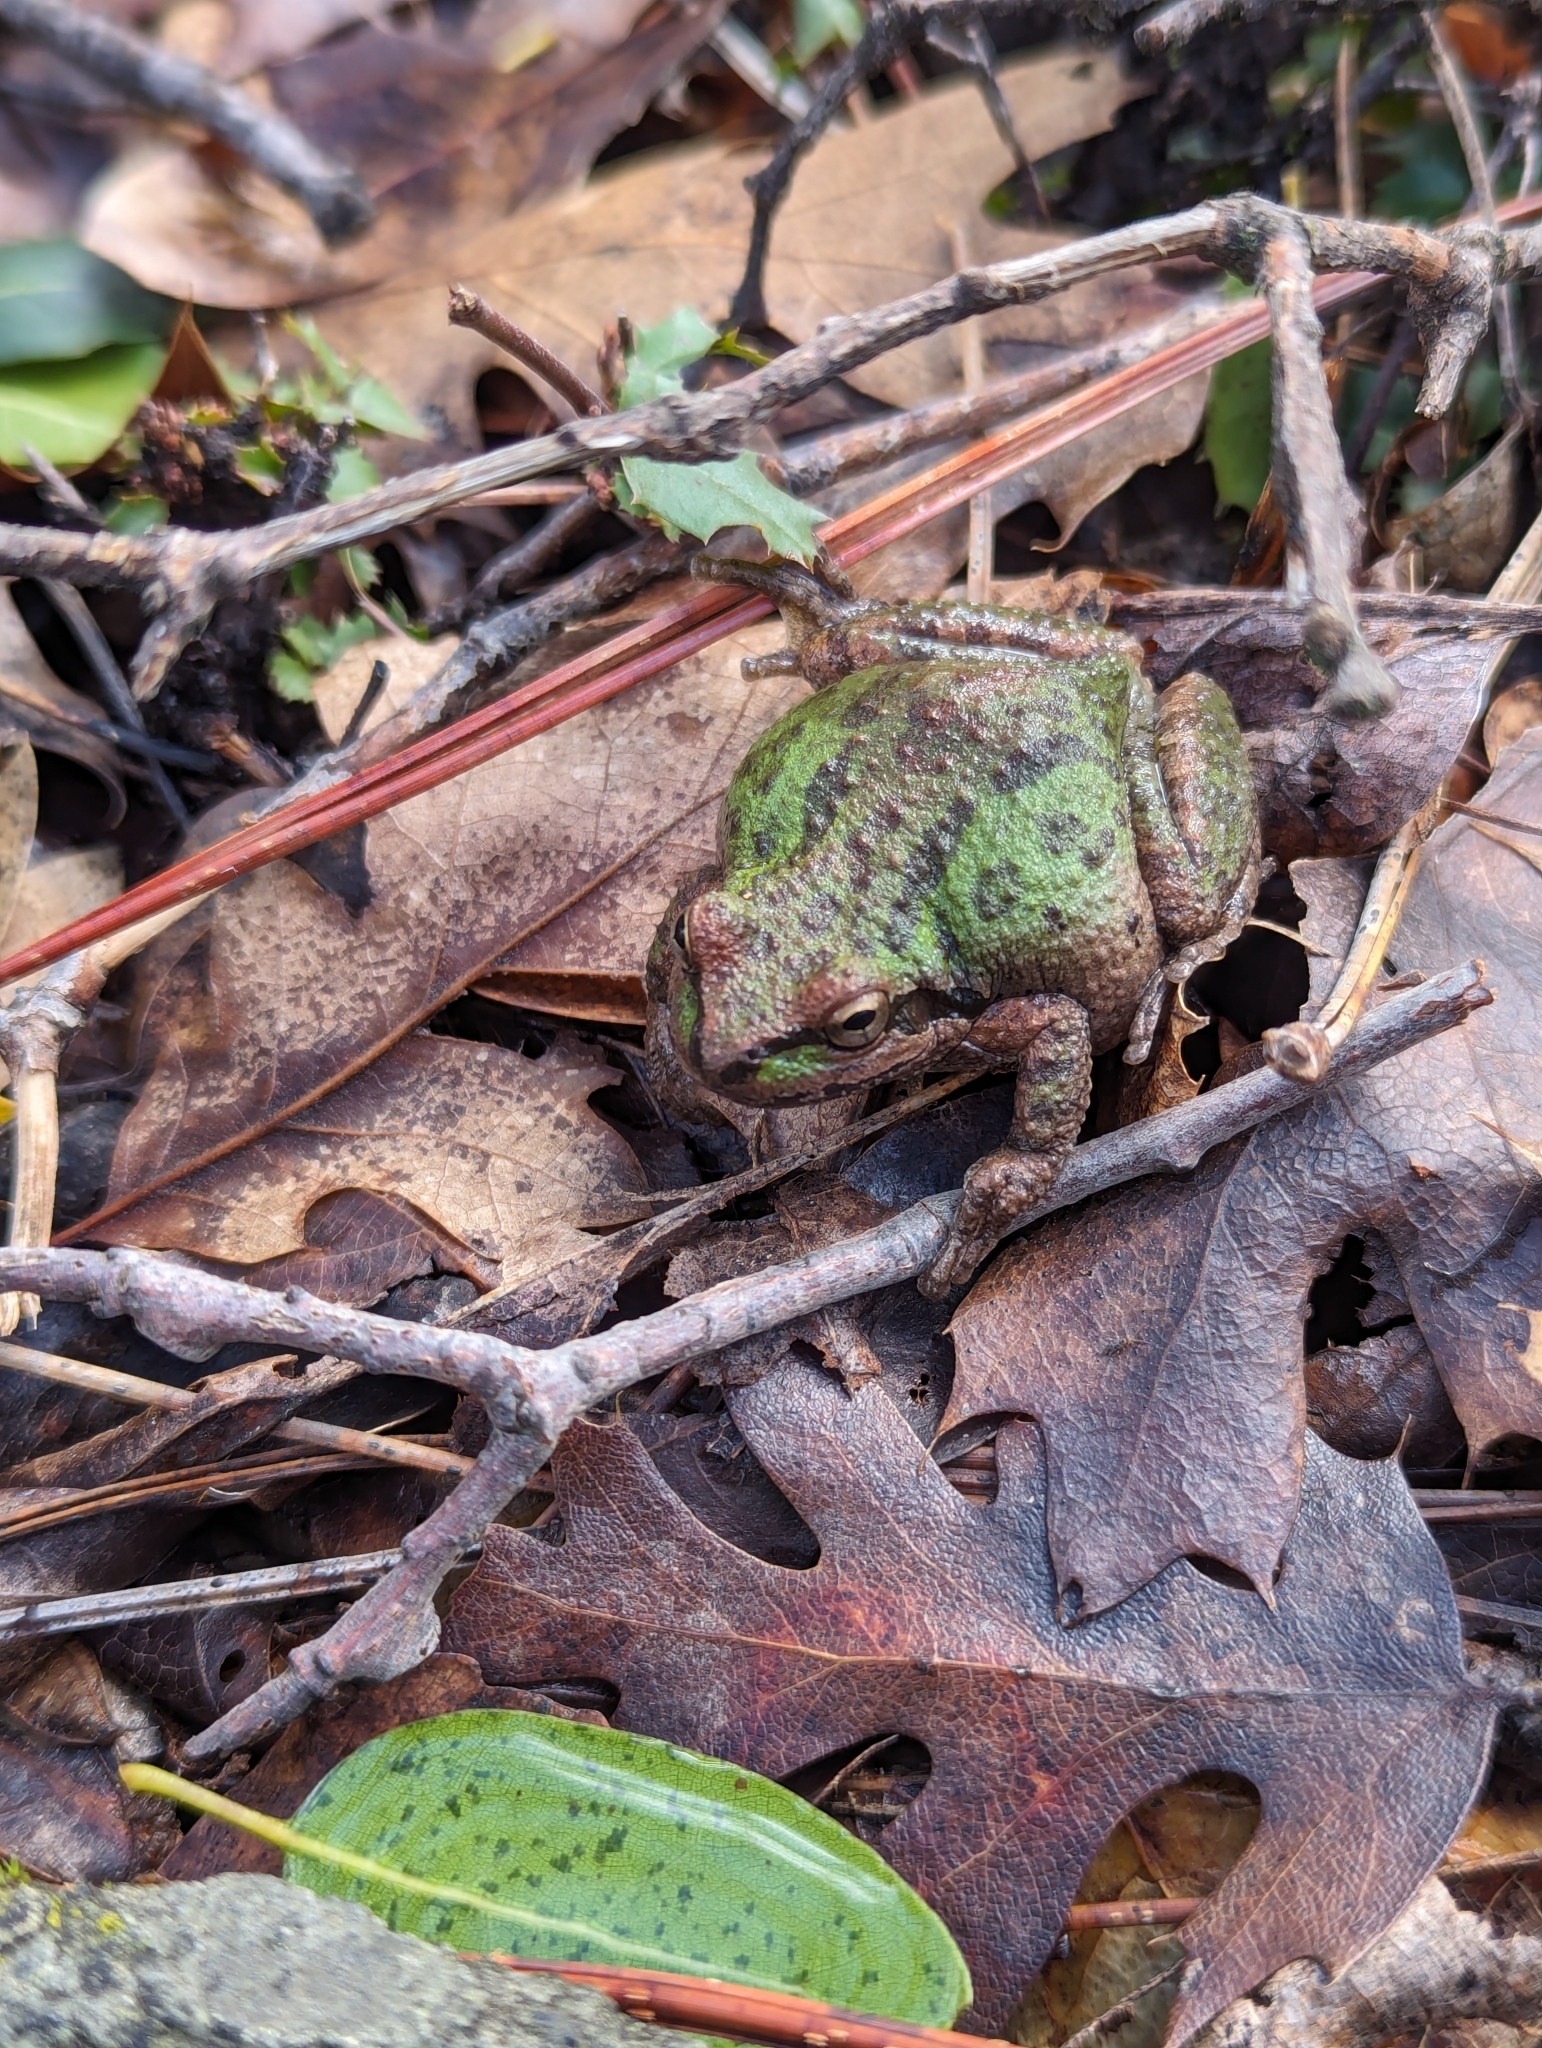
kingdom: Animalia
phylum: Chordata
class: Amphibia
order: Anura
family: Hylidae
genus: Pseudacris
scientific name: Pseudacris regilla
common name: Pacific chorus frog
